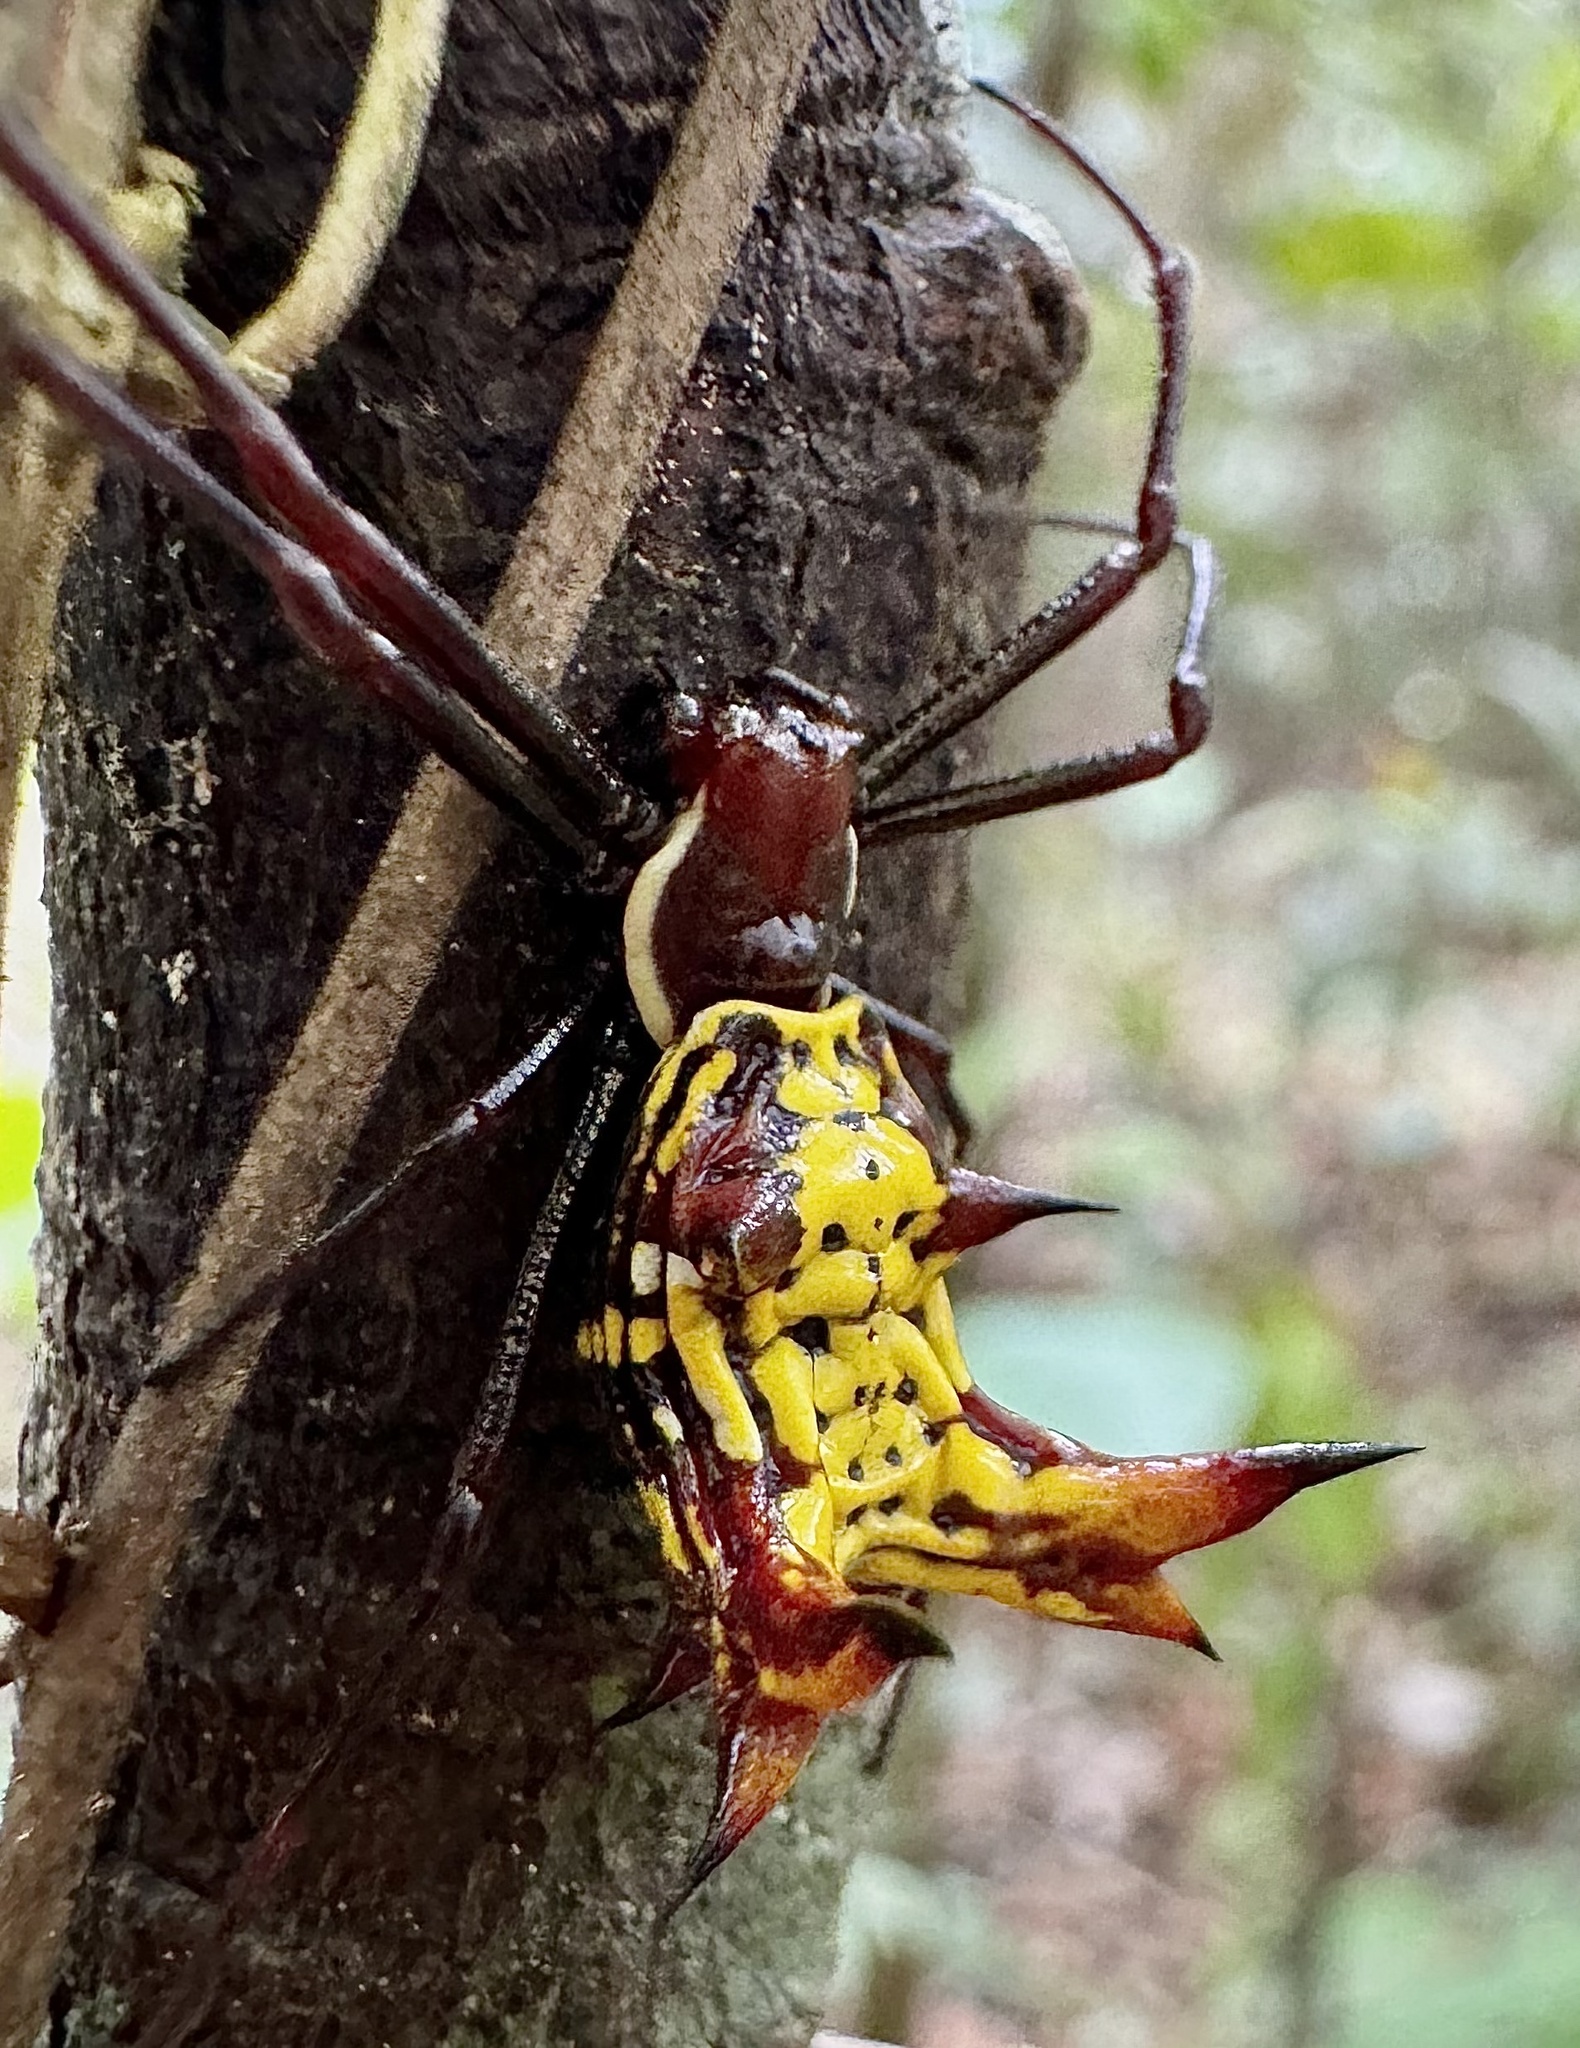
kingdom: Animalia
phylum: Arthropoda
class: Arachnida
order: Araneae
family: Araneidae
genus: Micrathena
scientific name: Micrathena fissispina
